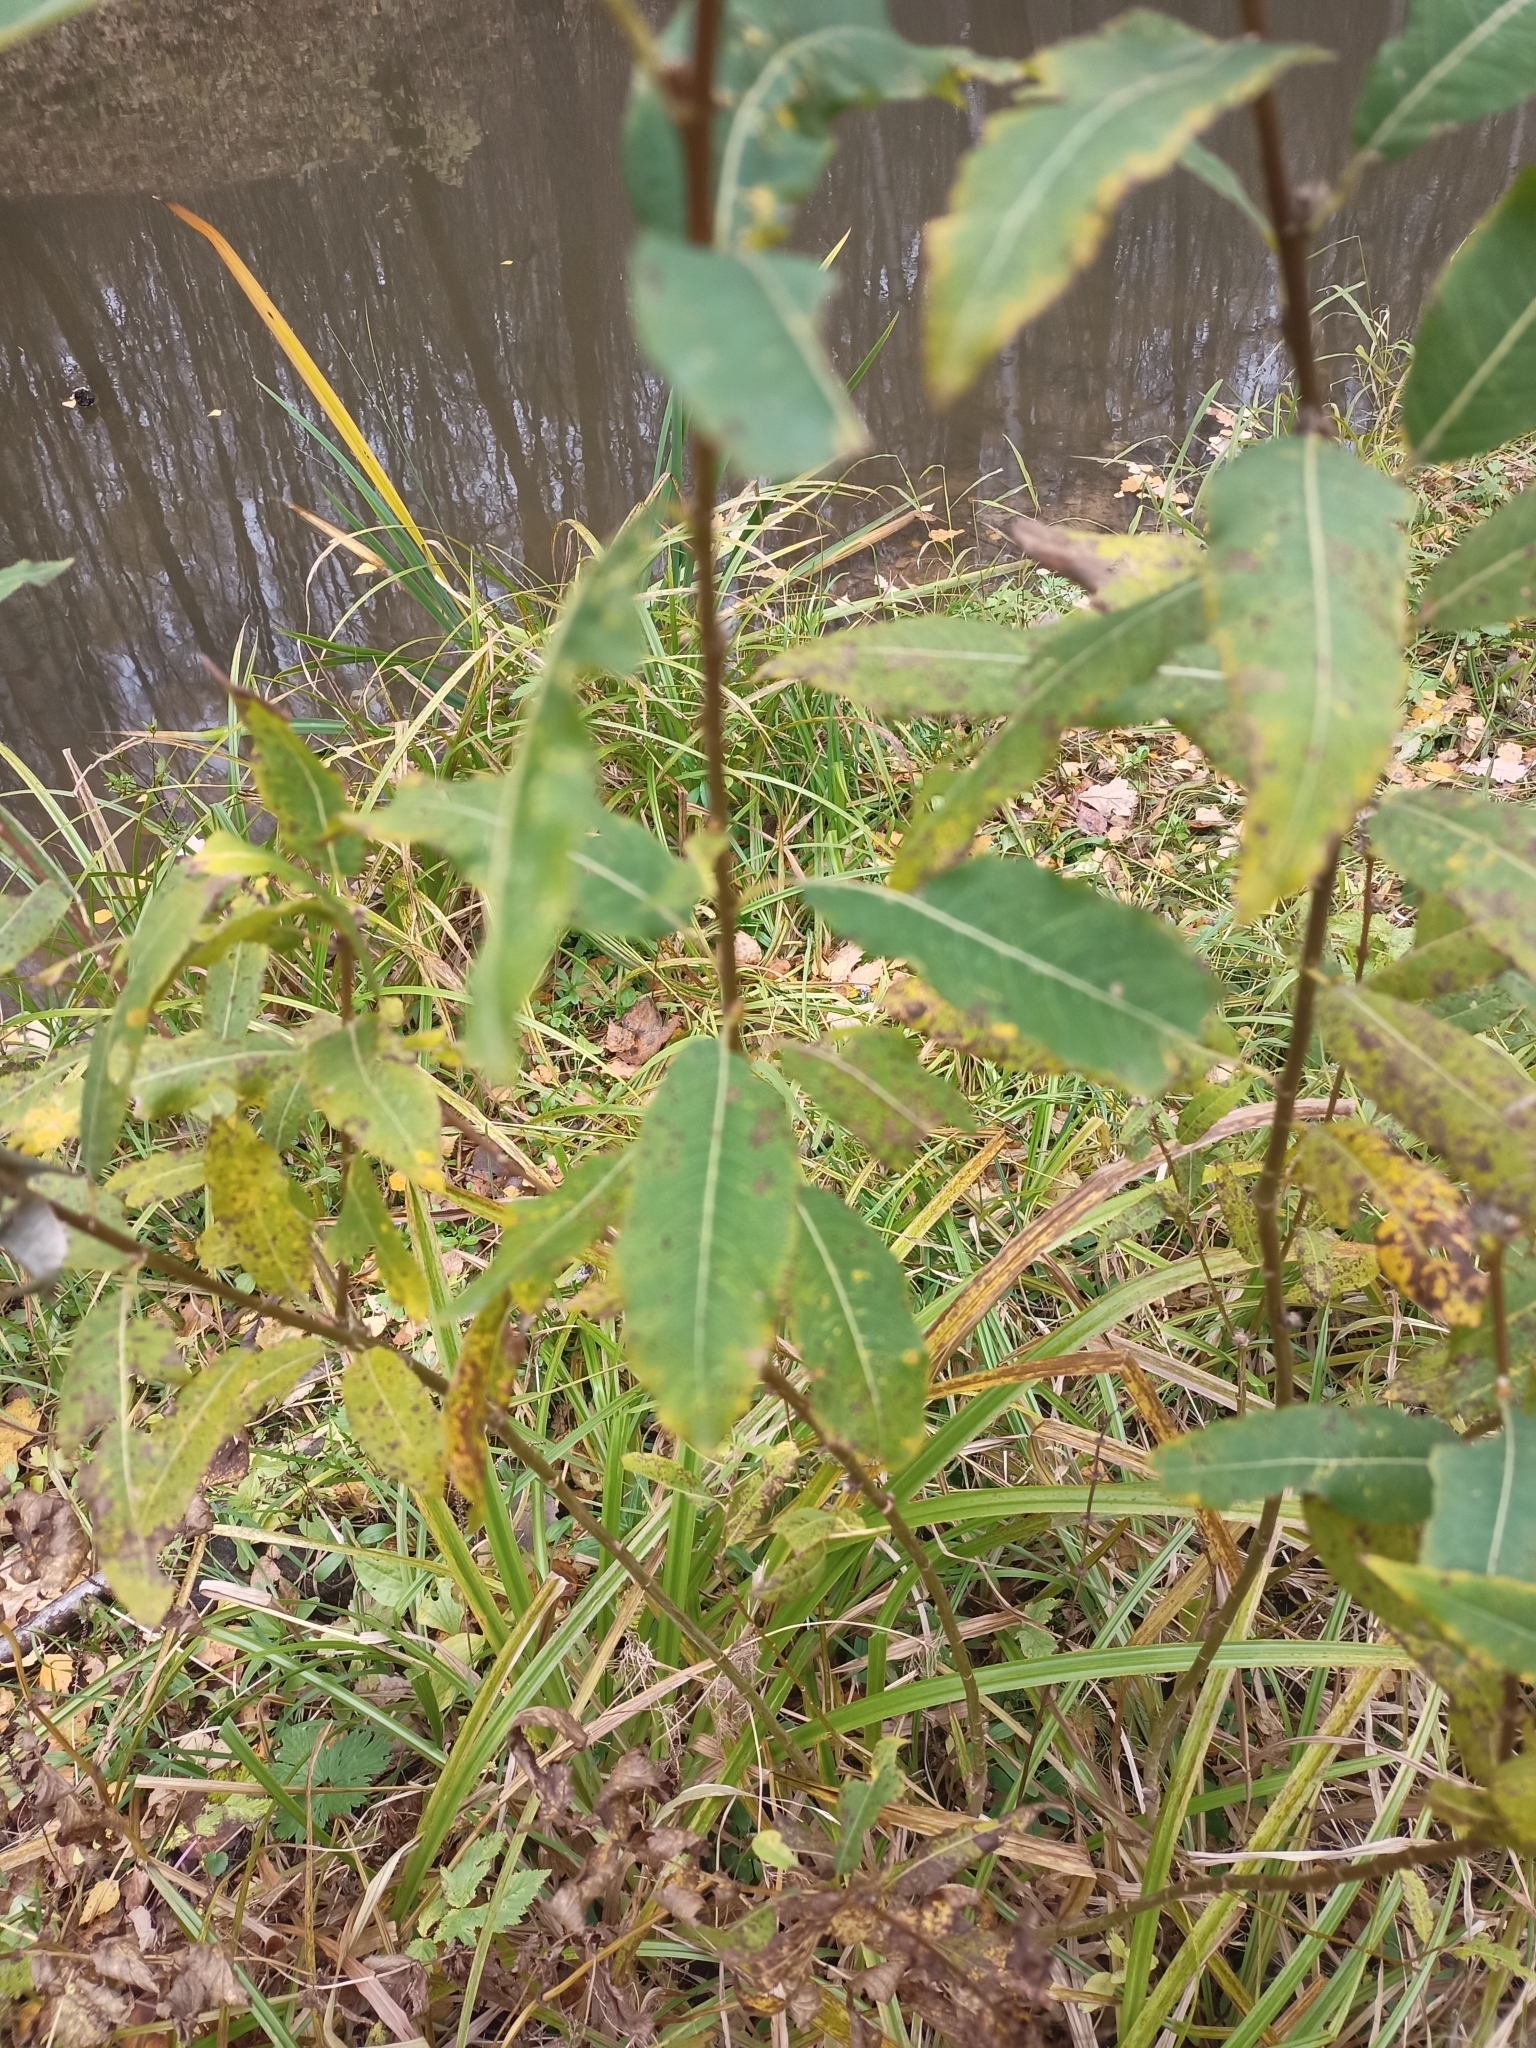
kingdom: Plantae
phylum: Tracheophyta
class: Magnoliopsida
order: Malpighiales
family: Salicaceae
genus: Salix
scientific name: Salix triandra
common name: Almond willow
